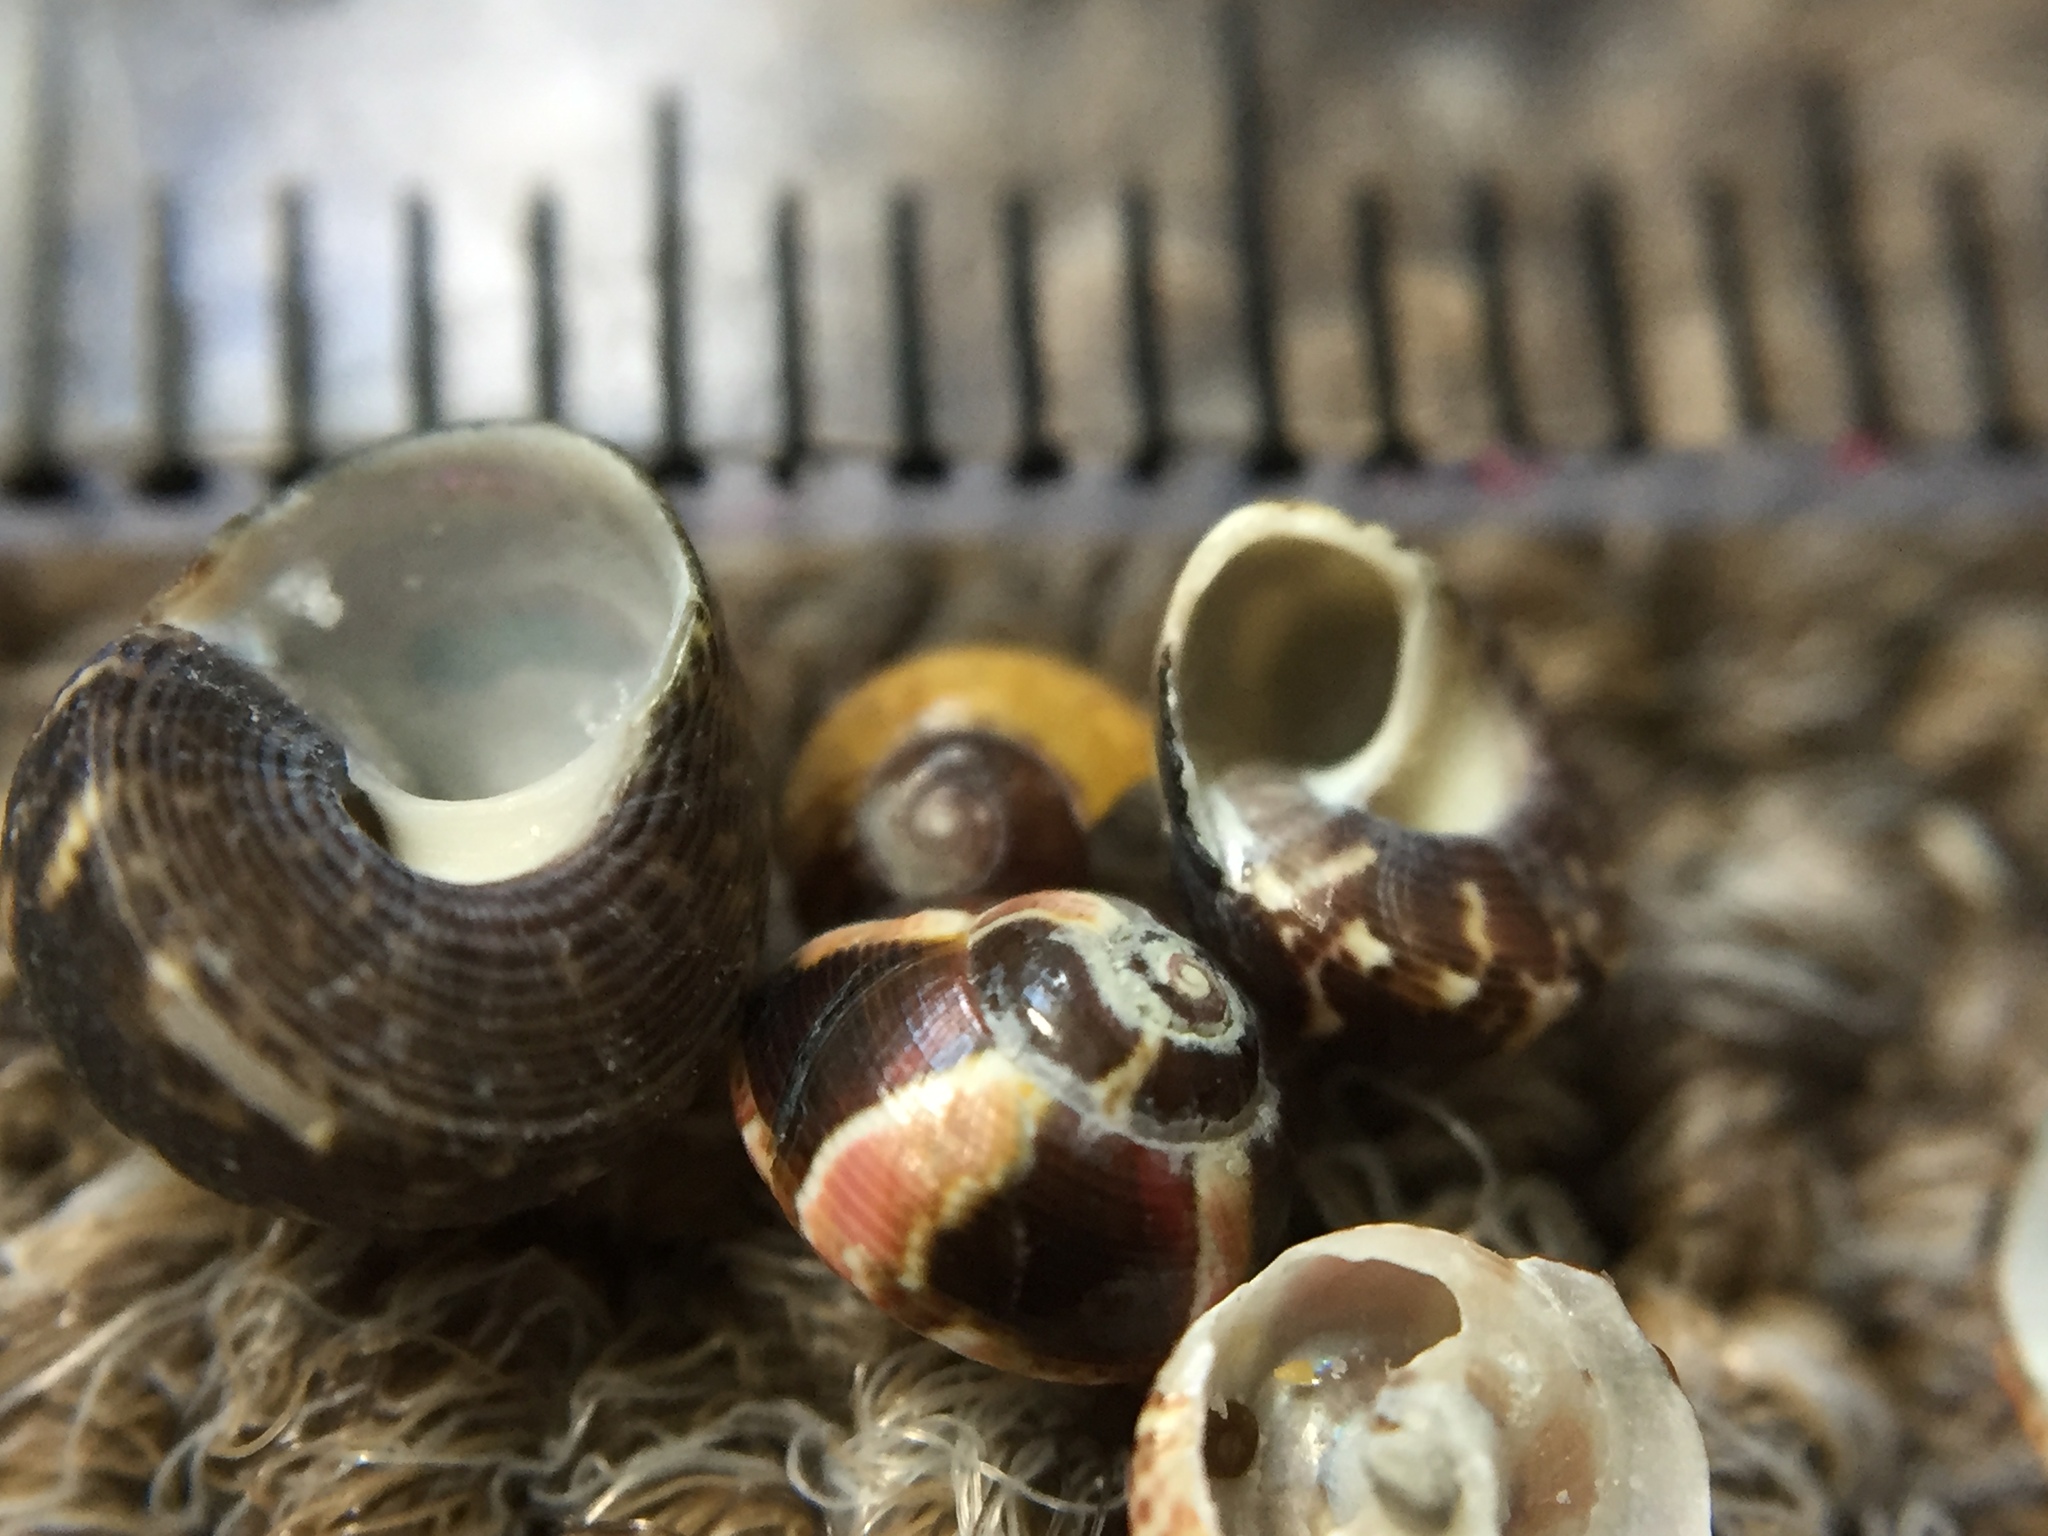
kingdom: Animalia
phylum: Mollusca
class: Gastropoda
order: Trochida
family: Trochidae
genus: Micrelenchus
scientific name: Micrelenchus tessellatus
